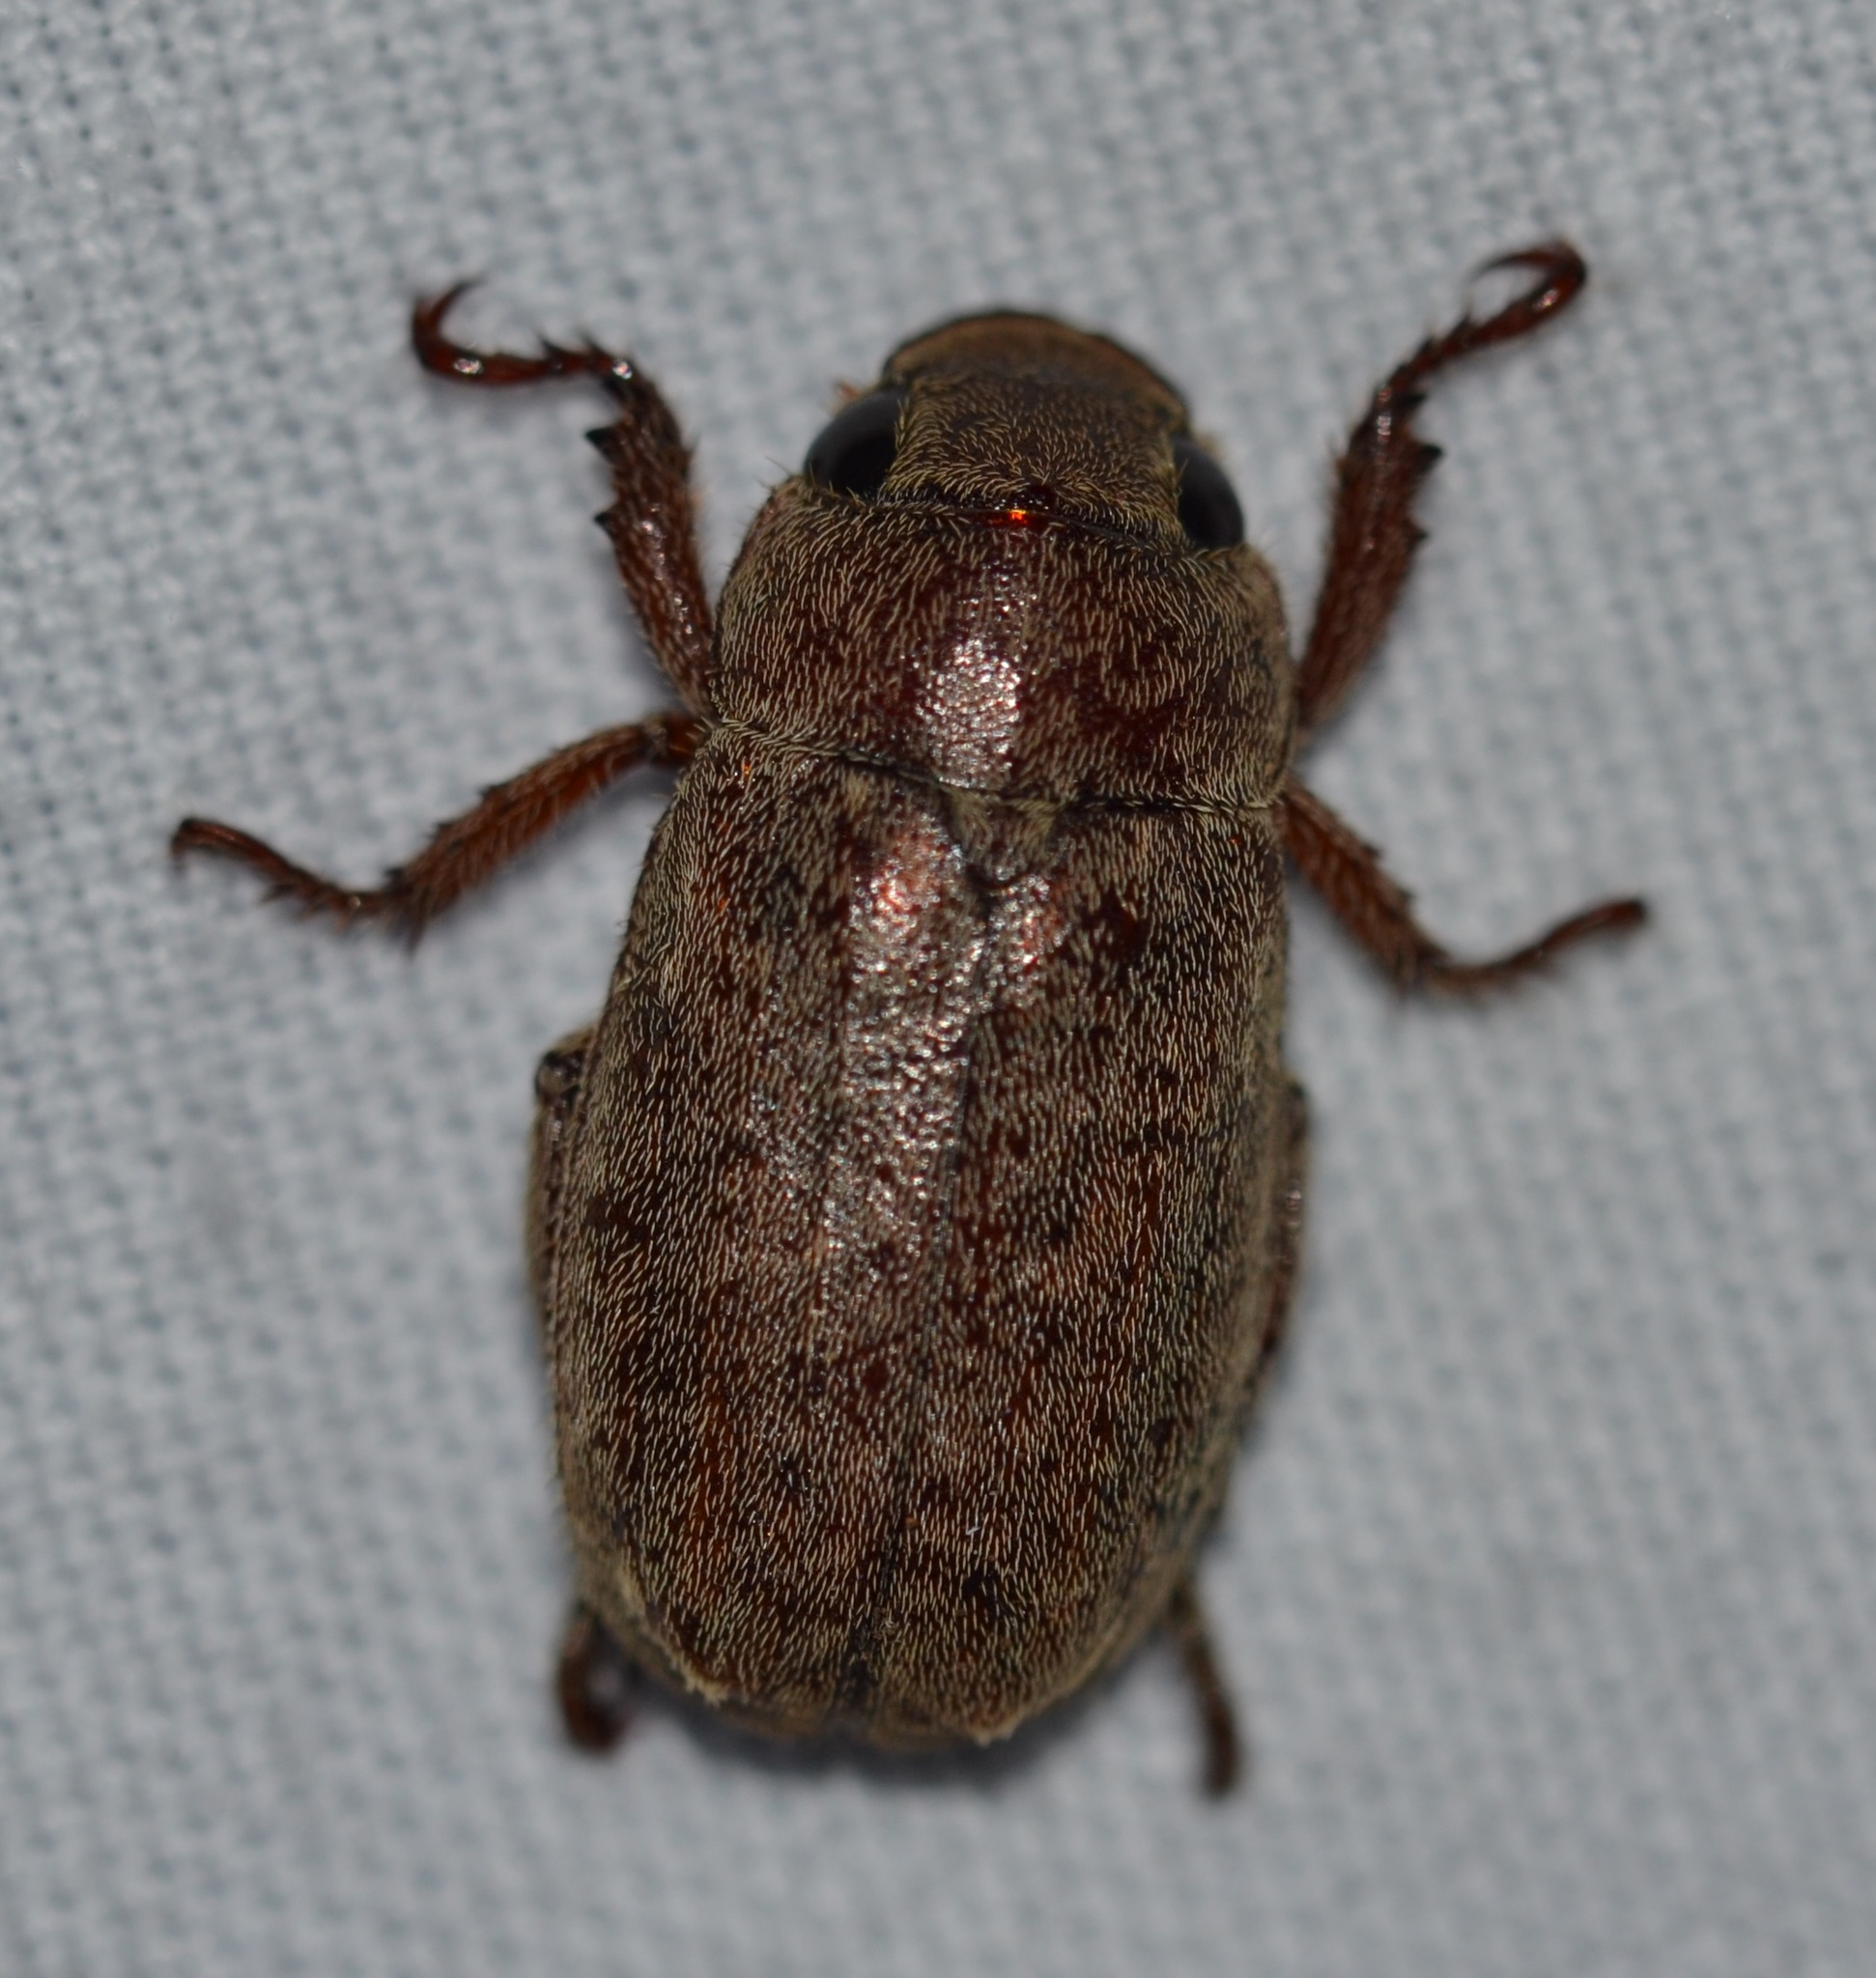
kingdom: Animalia
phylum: Arthropoda
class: Insecta
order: Coleoptera
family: Scarabaeidae
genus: Adoretus
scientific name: Adoretus sinicus
